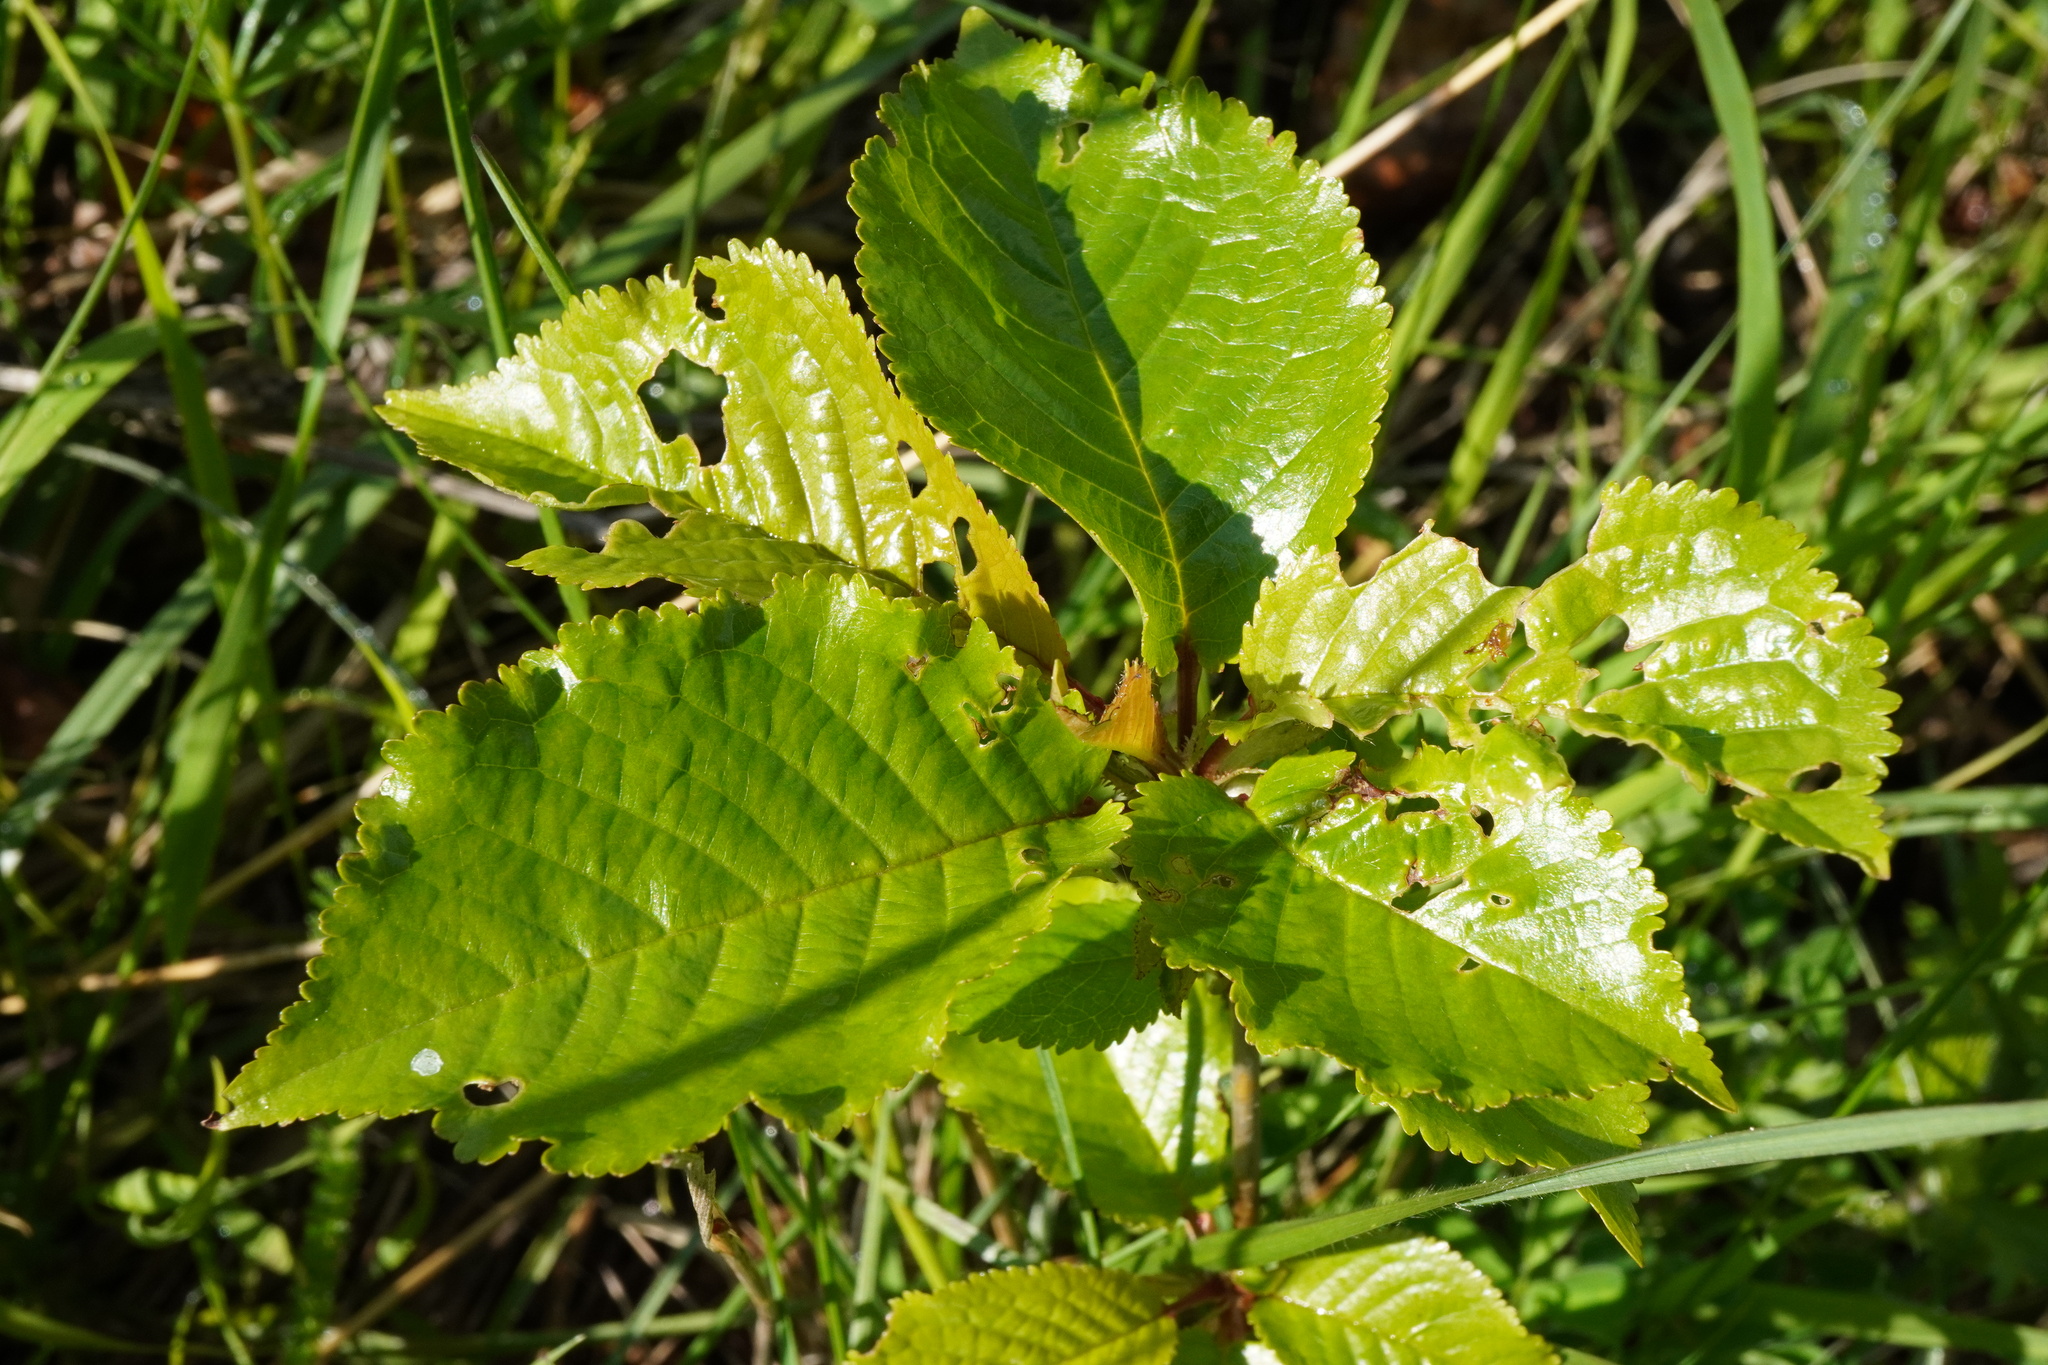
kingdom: Plantae
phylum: Tracheophyta
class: Magnoliopsida
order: Rosales
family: Rosaceae
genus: Prunus
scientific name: Prunus avium
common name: Sweet cherry
